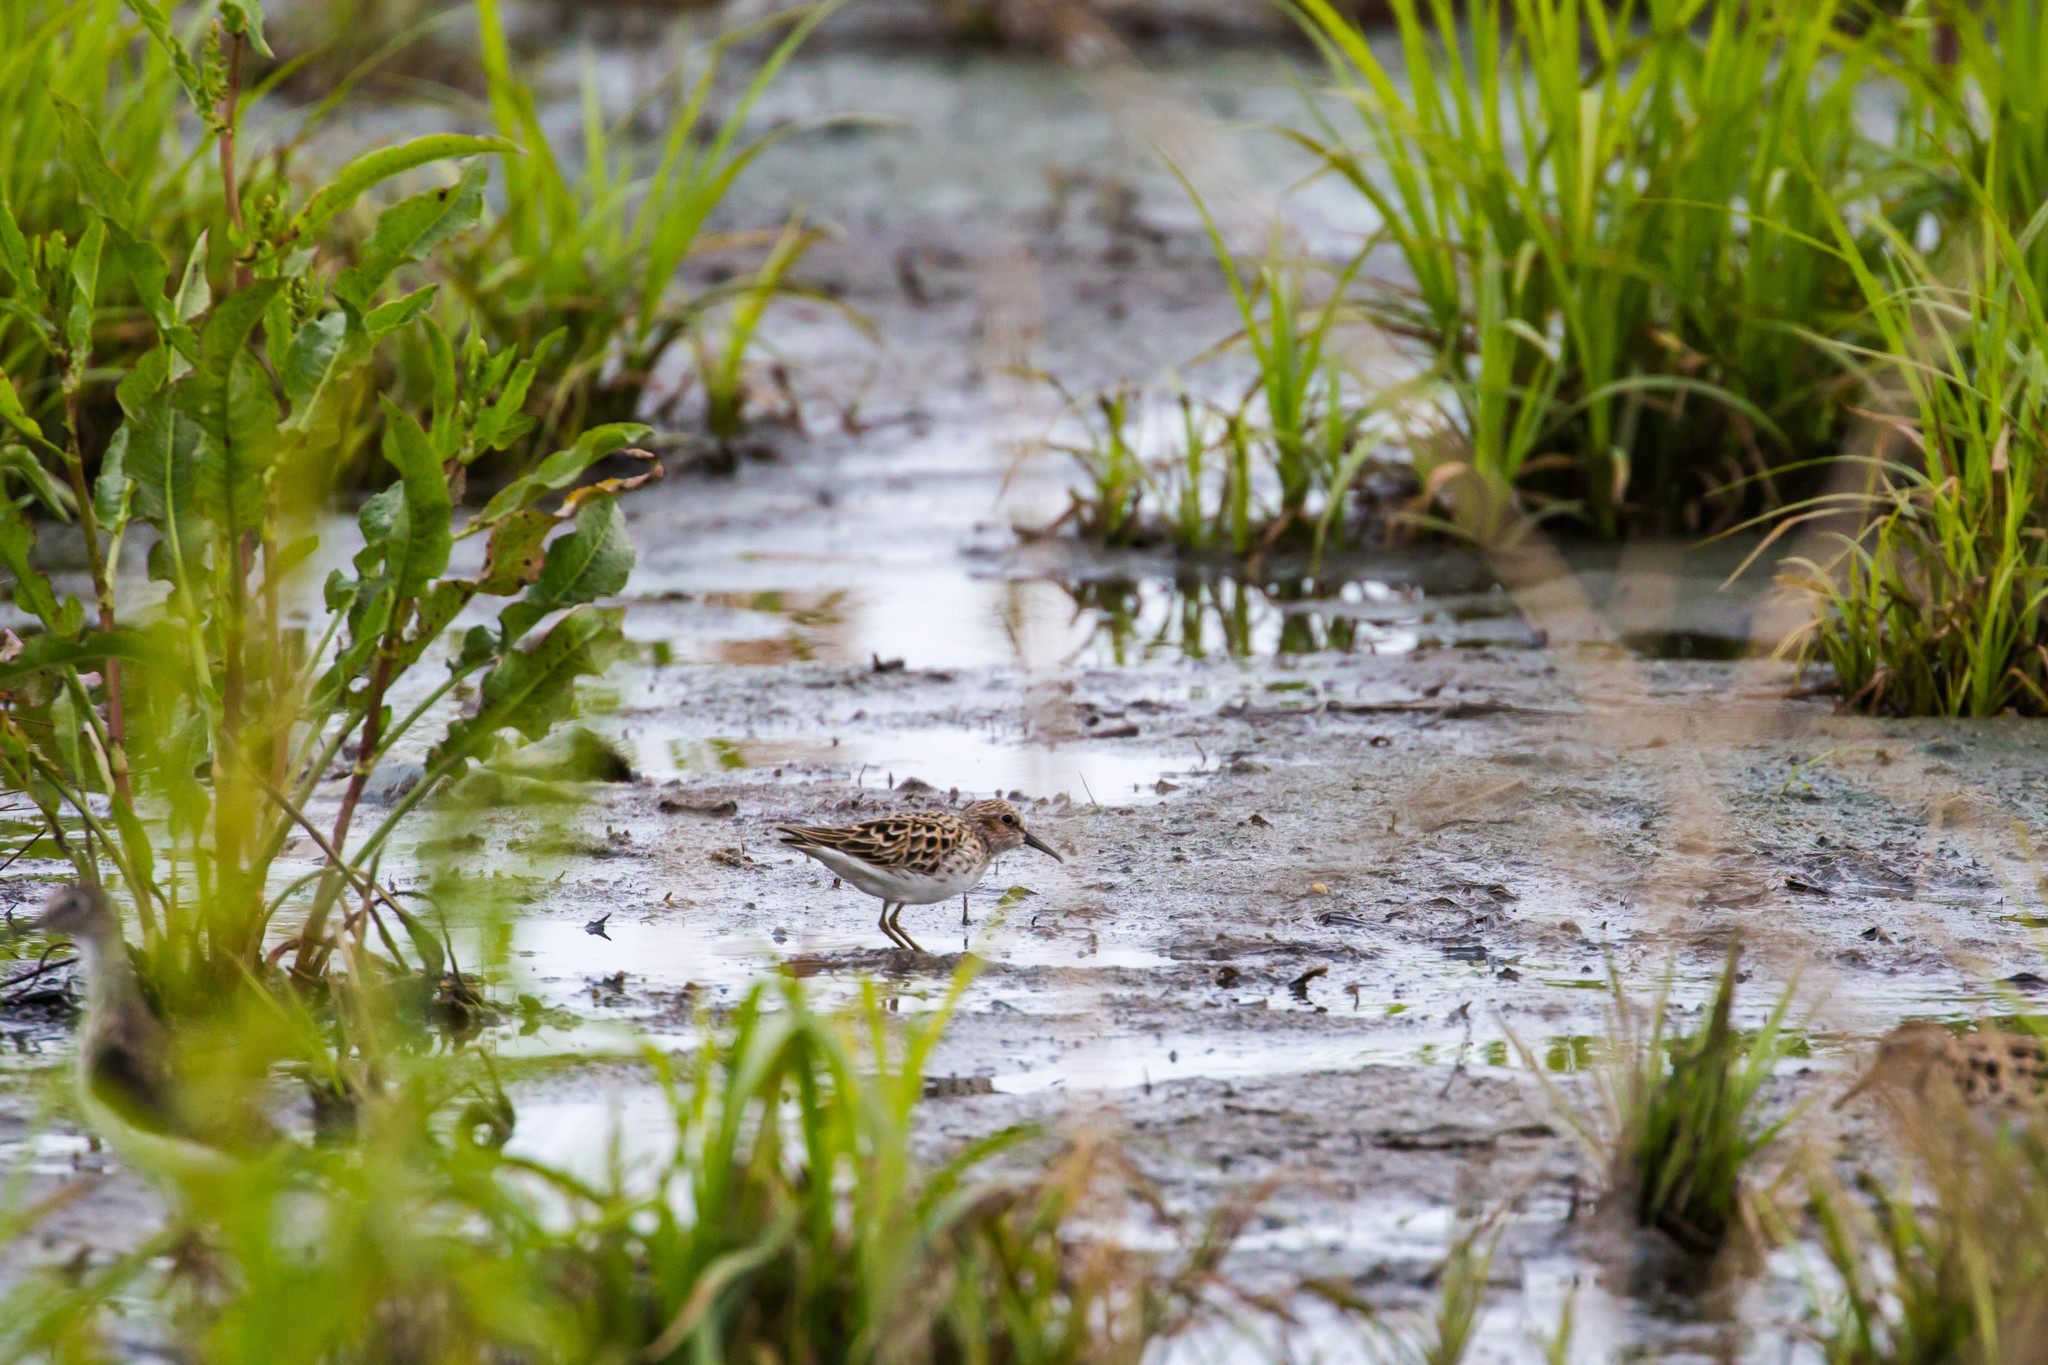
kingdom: Animalia
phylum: Chordata
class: Aves
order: Charadriiformes
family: Scolopacidae
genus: Calidris
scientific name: Calidris minutilla
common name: Least sandpiper
